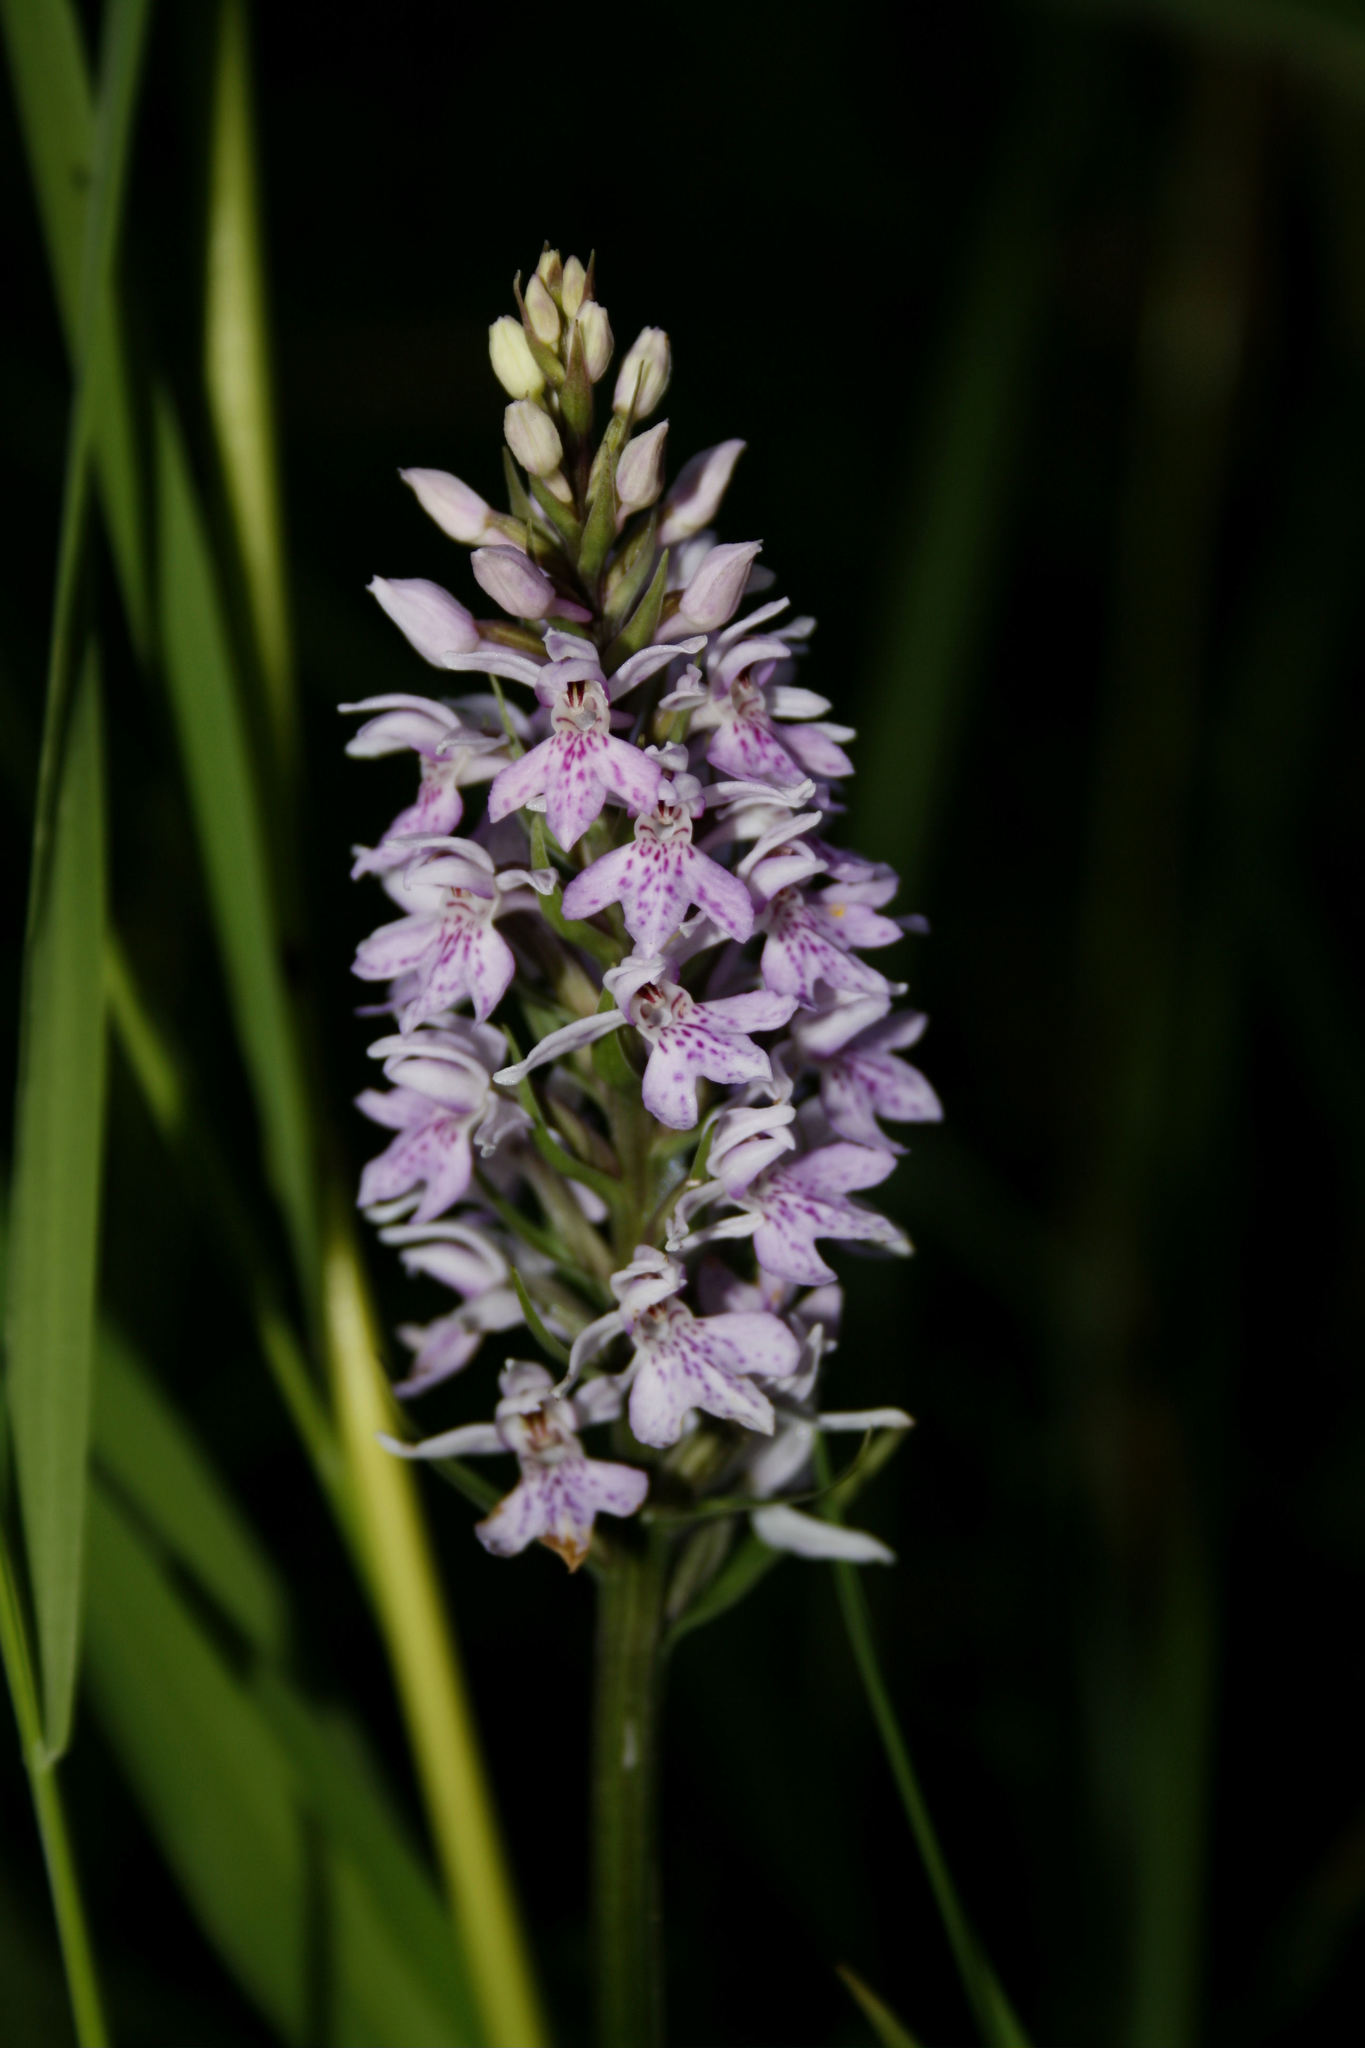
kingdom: Plantae
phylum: Tracheophyta
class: Liliopsida
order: Asparagales
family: Orchidaceae
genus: Dactylorhiza
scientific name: Dactylorhiza maculata
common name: Heath spotted-orchid
